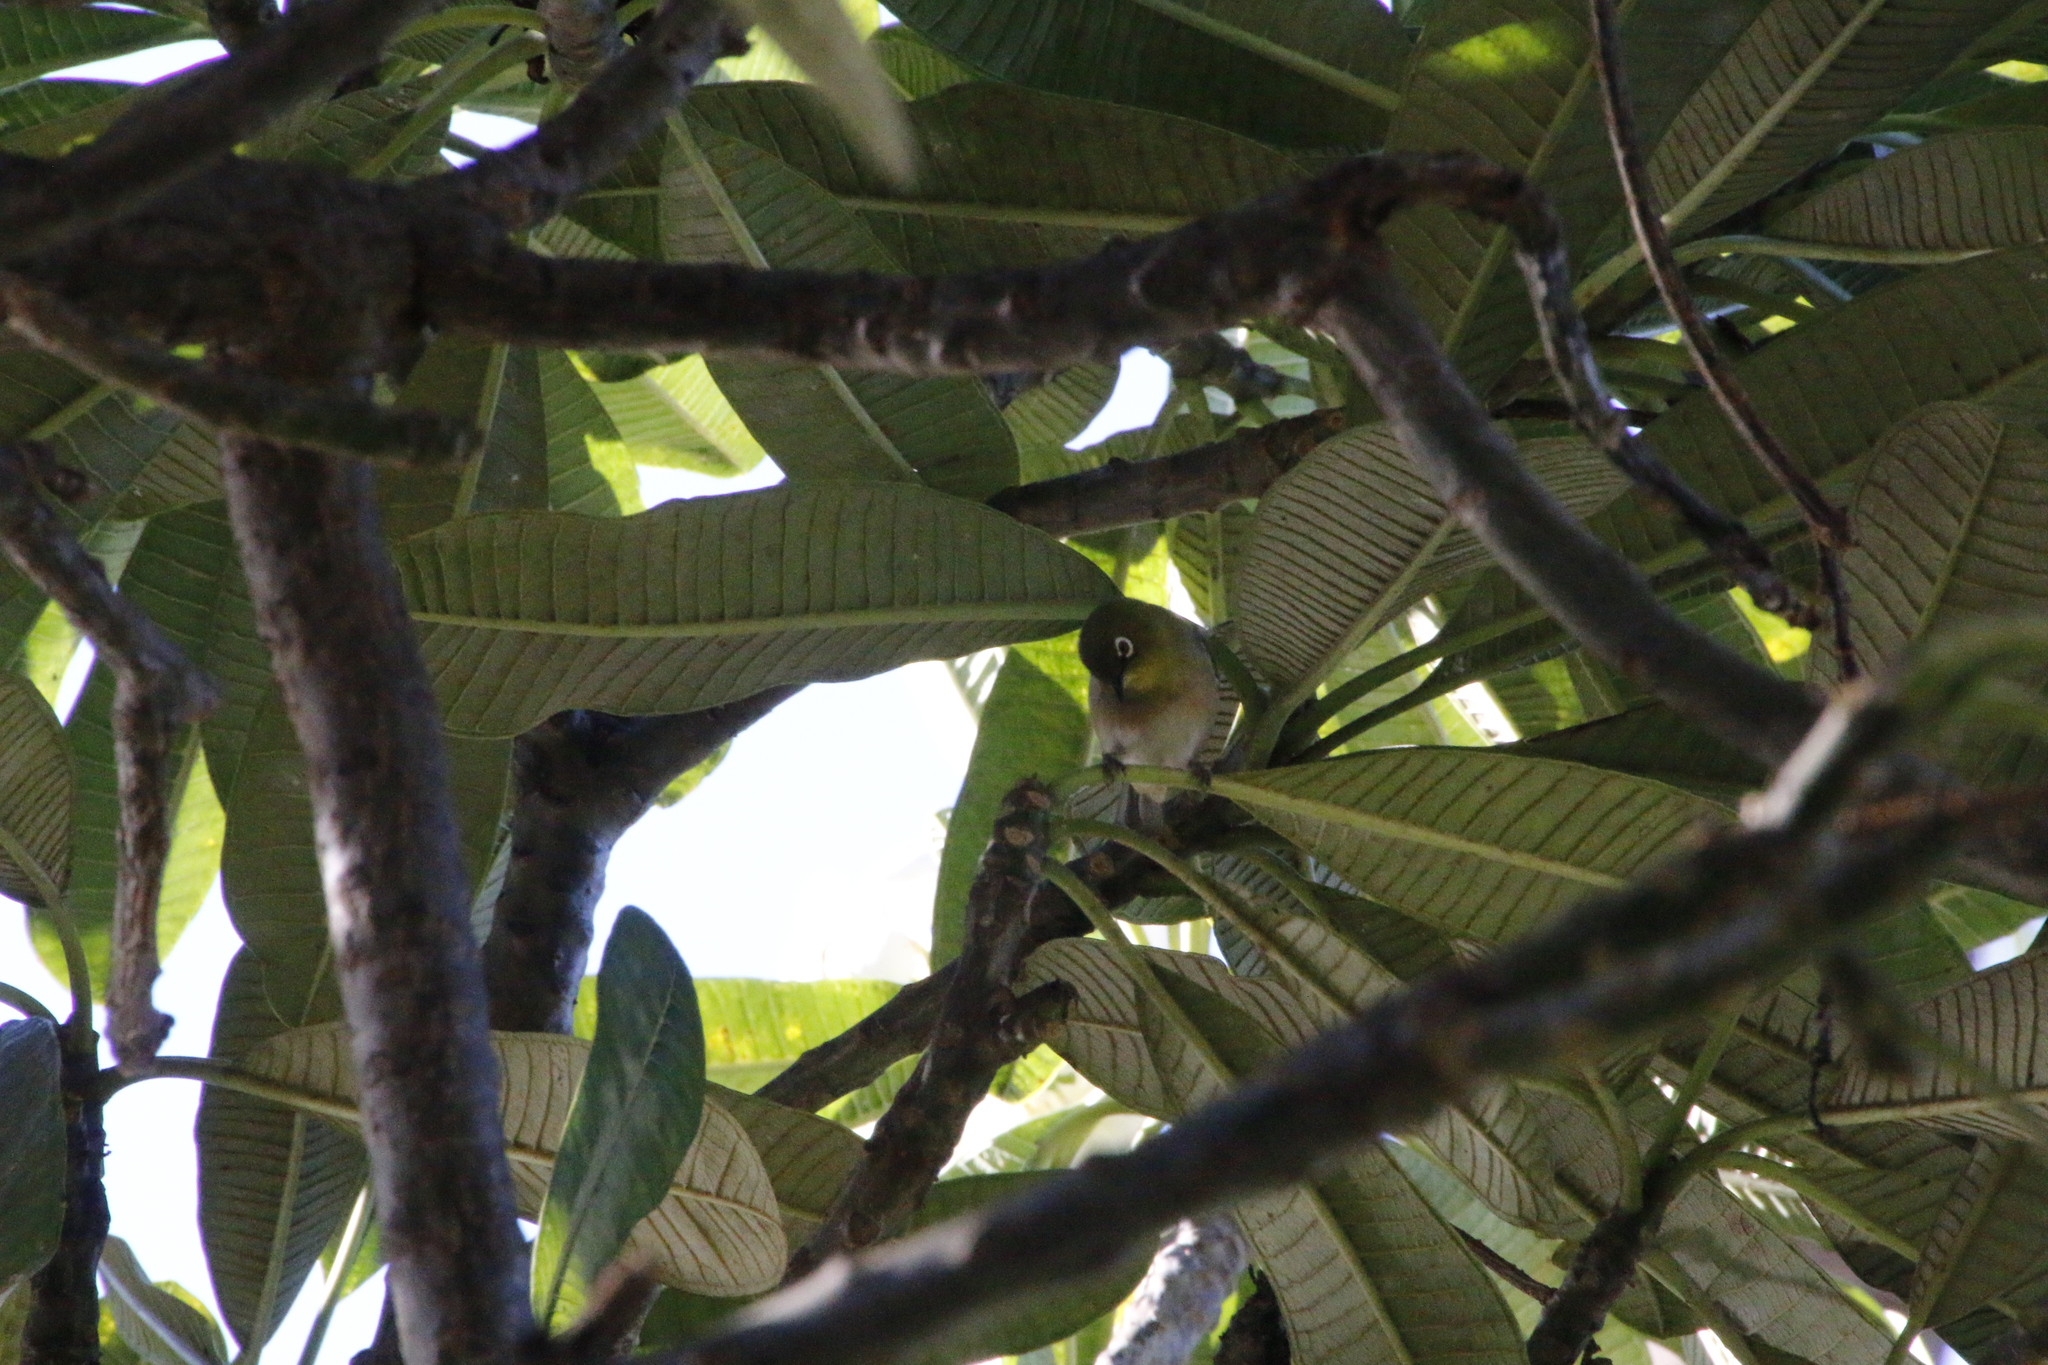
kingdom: Animalia
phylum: Chordata
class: Aves
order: Passeriformes
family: Zosteropidae
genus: Zosterops
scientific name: Zosterops japonicus
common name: Japanese white-eye
